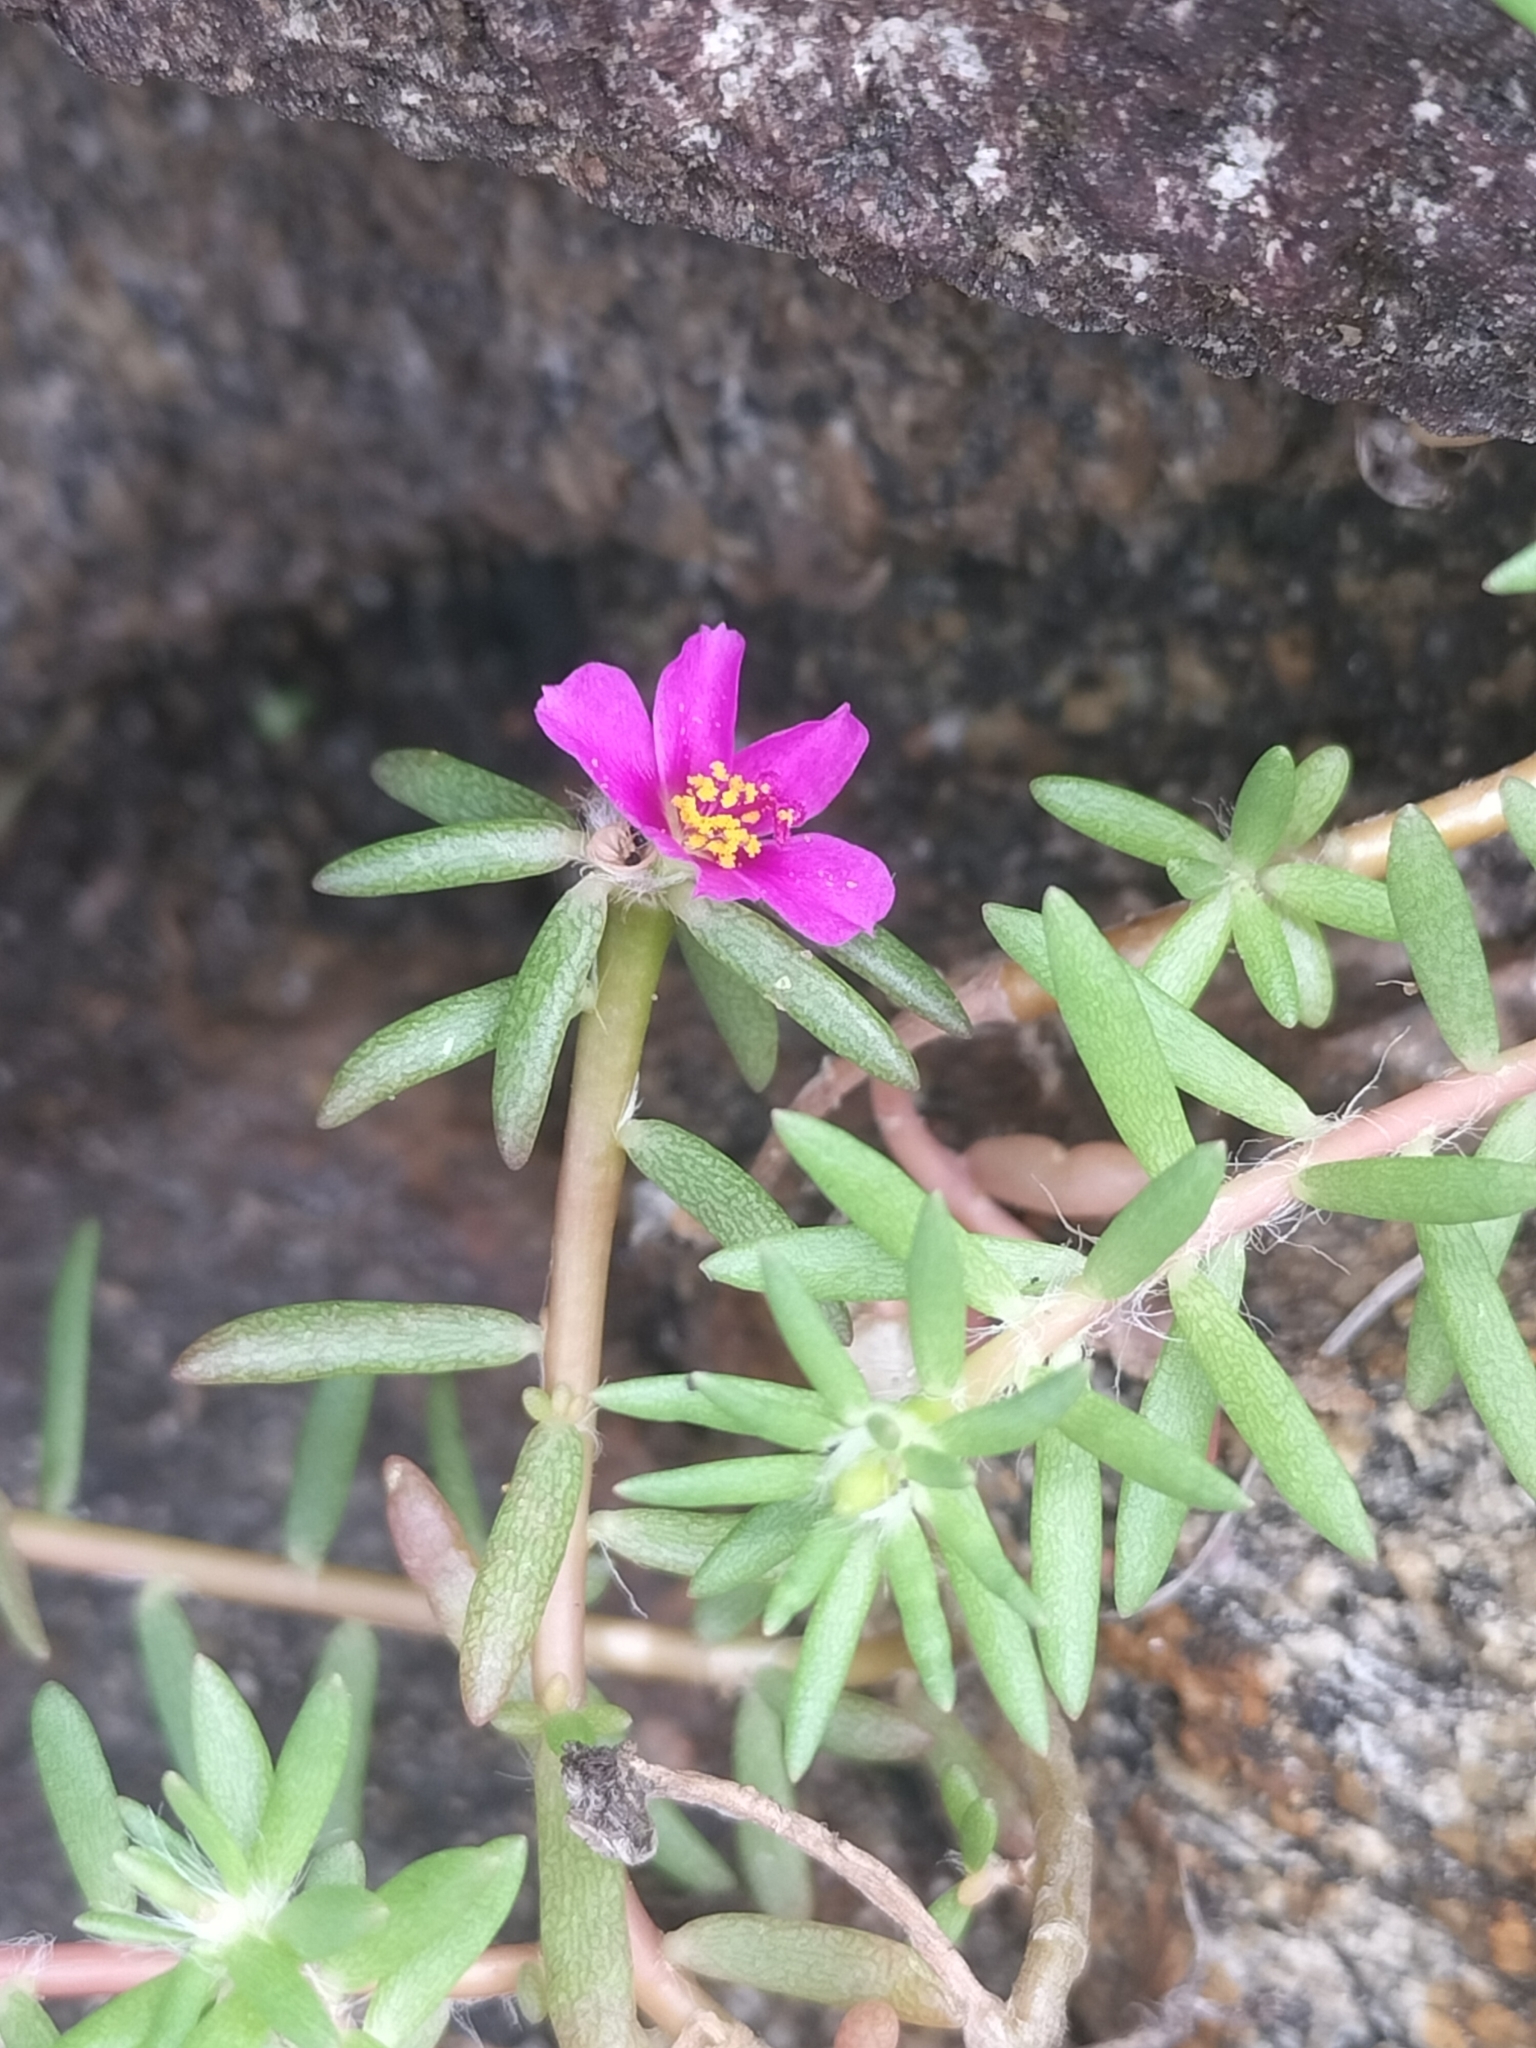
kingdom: Plantae
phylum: Tracheophyta
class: Magnoliopsida
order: Caryophyllales
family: Portulacaceae
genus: Portulaca
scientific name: Portulaca pilosa
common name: Kiss me quick
